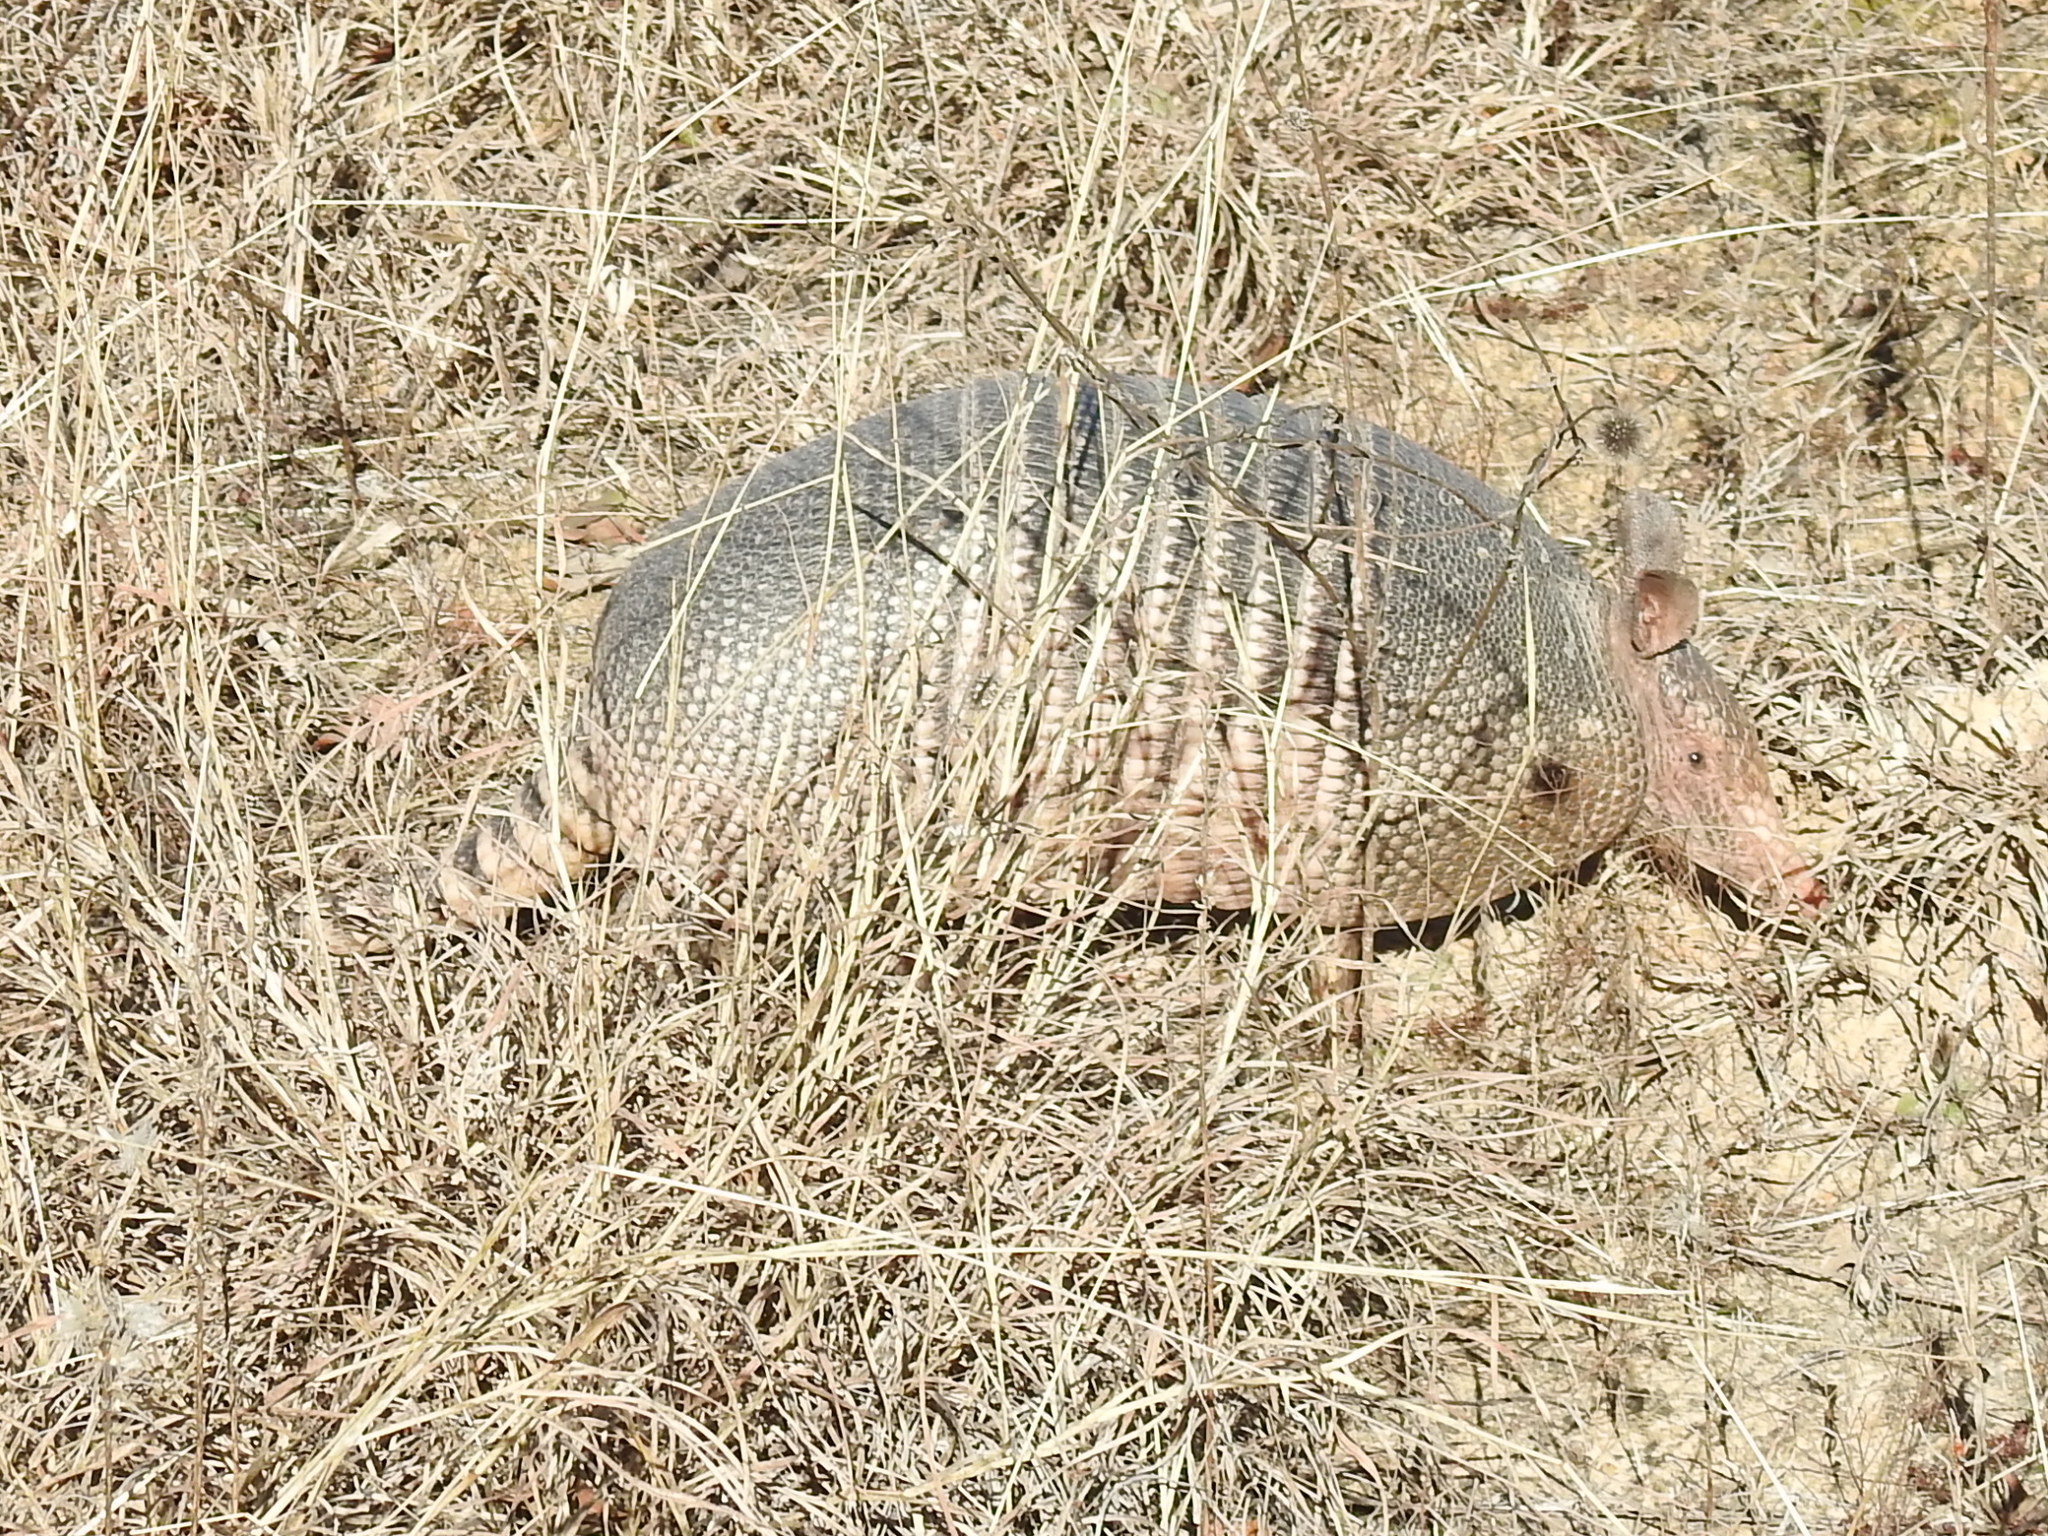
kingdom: Animalia
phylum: Chordata
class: Mammalia
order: Cingulata
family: Dasypodidae
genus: Dasypus
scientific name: Dasypus novemcinctus
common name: Nine-banded armadillo
